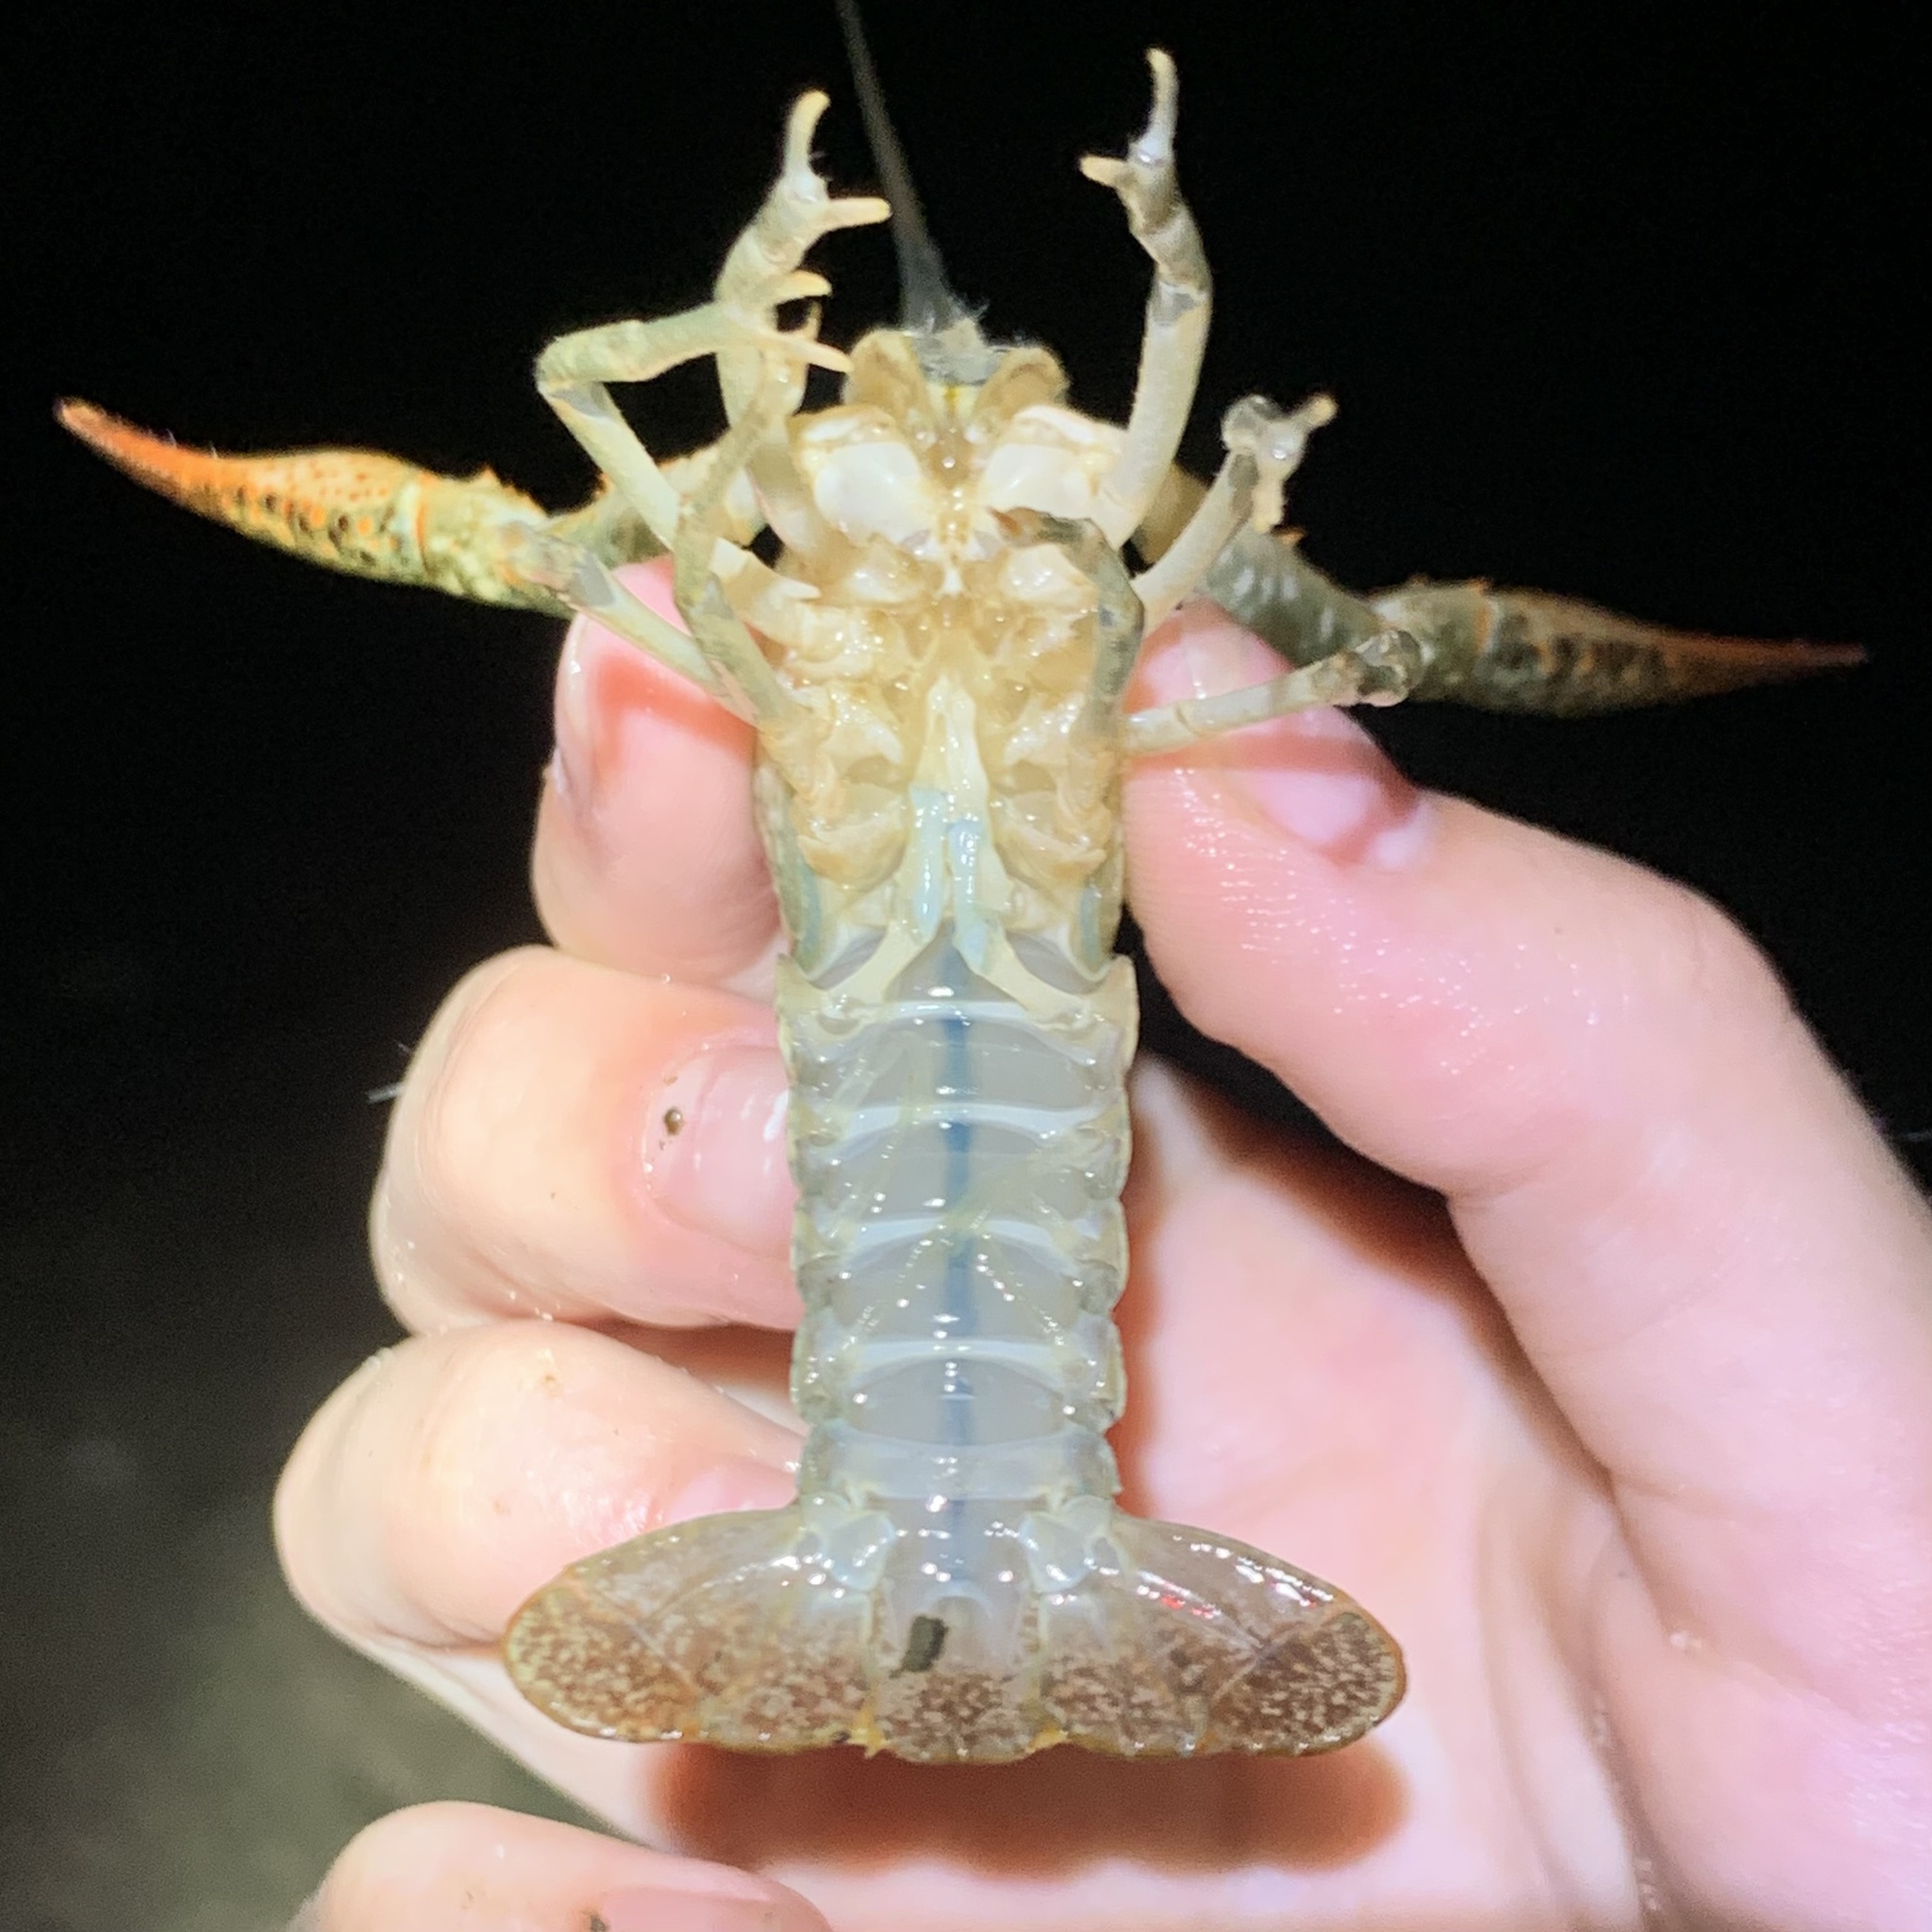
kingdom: Animalia
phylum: Arthropoda
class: Malacostraca
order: Decapoda
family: Cambaridae
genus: Procambarus
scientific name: Procambarus clarkii
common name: Red swamp crayfish
